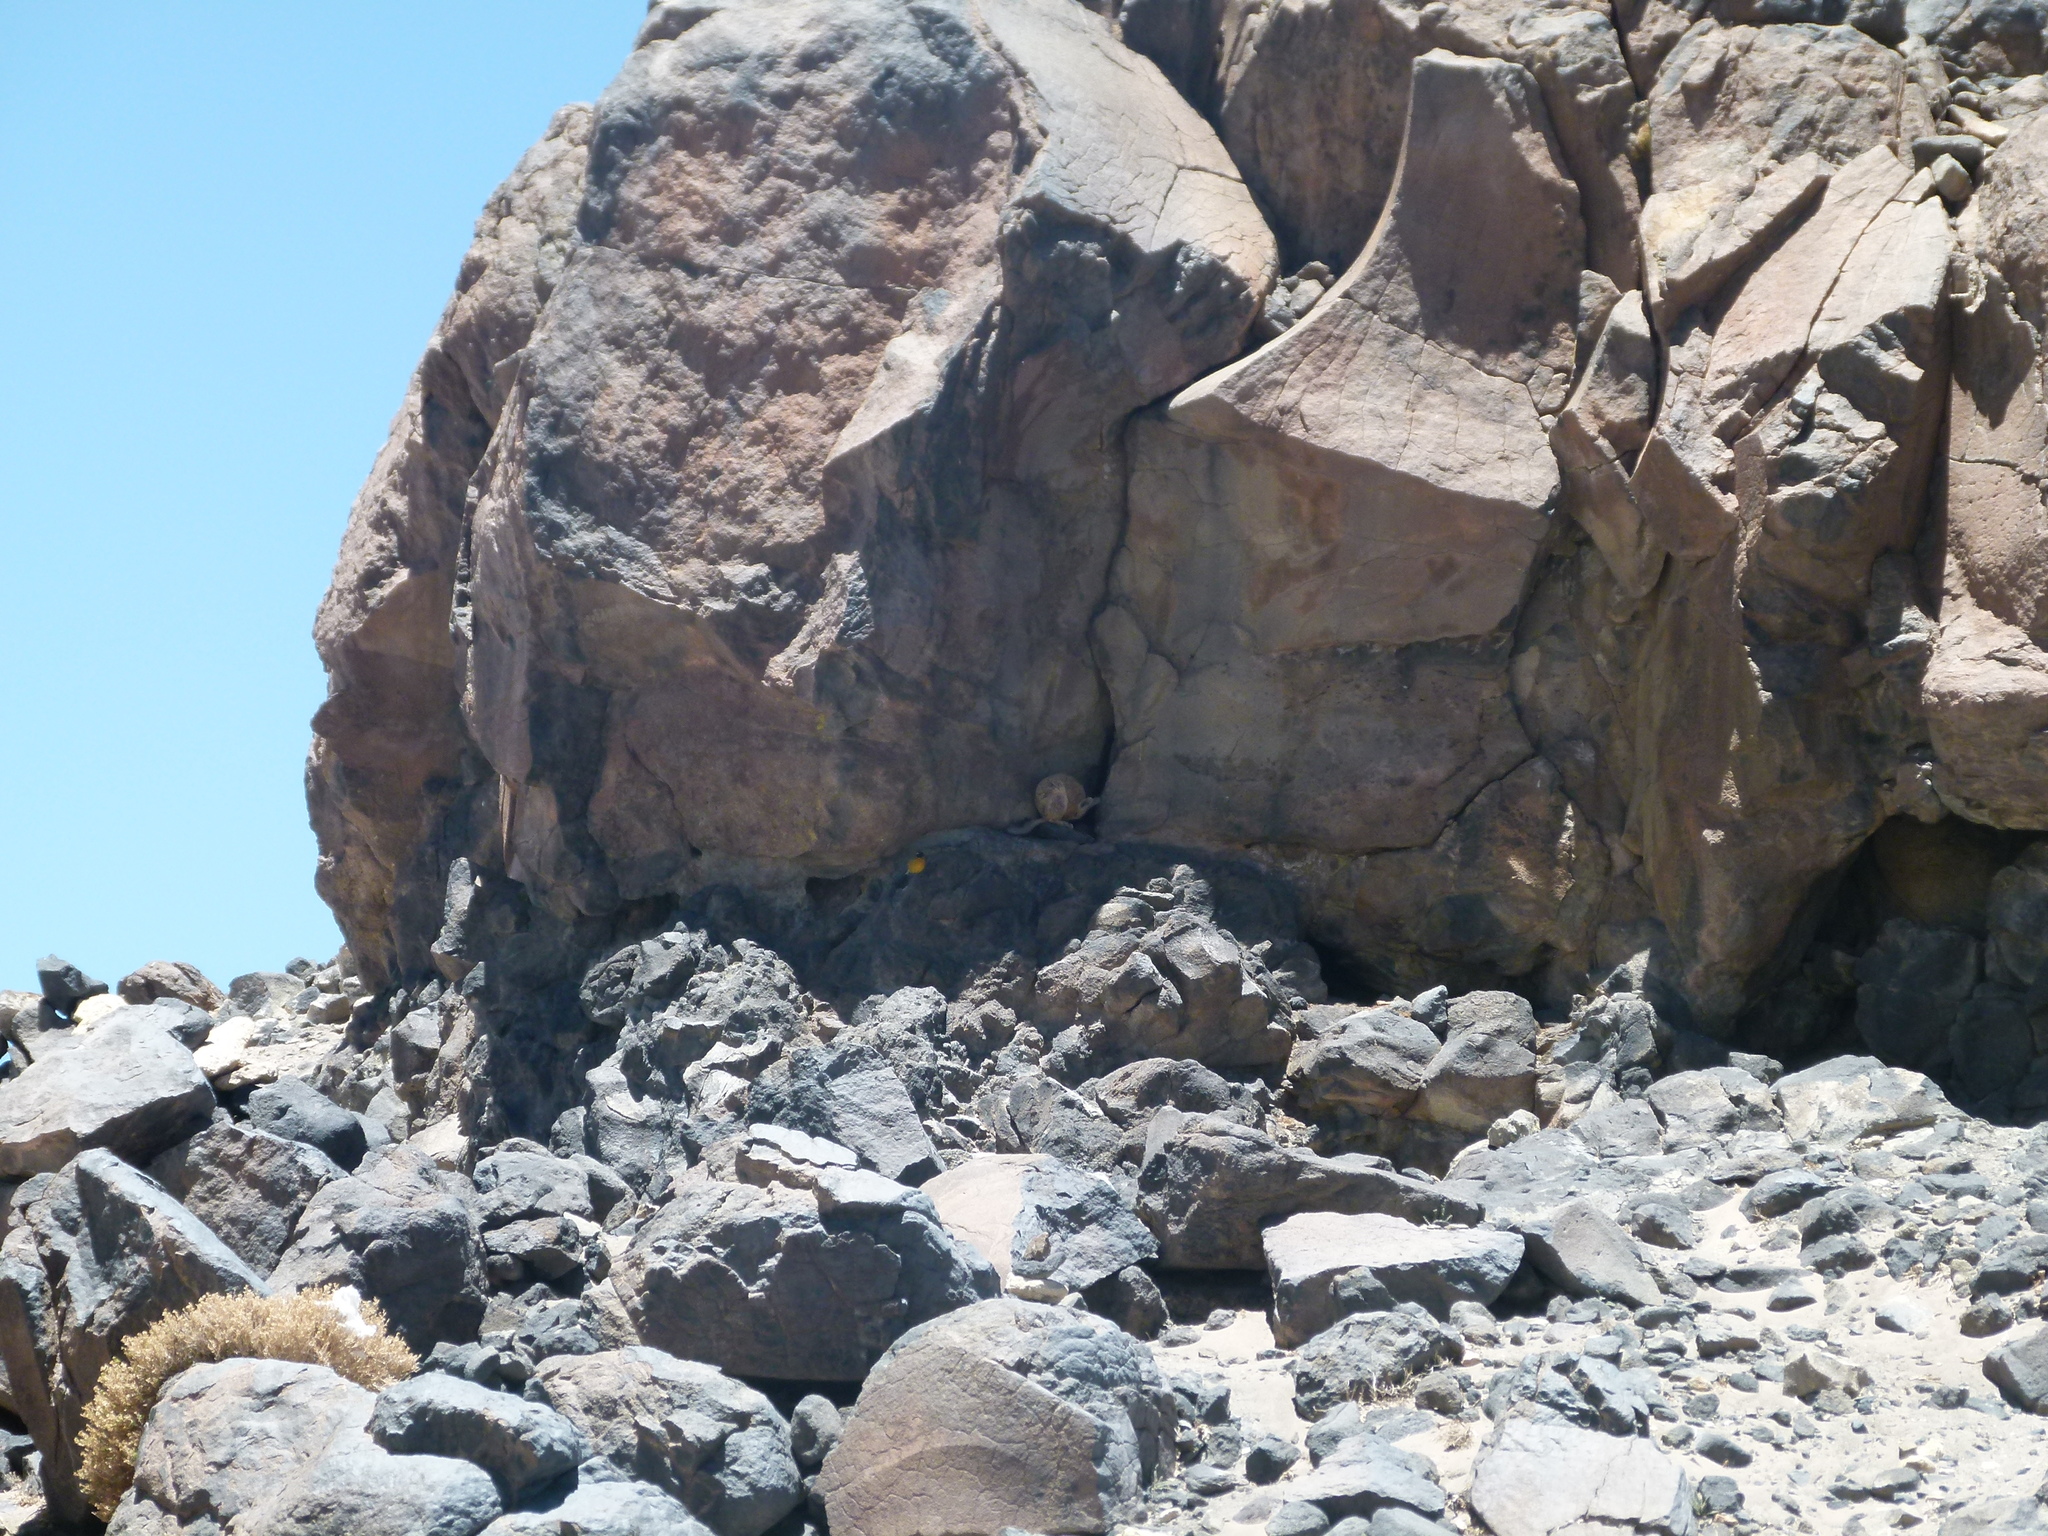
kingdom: Animalia
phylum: Chordata
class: Mammalia
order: Rodentia
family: Chinchillidae
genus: Lagidium
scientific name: Lagidium viscacia
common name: Southern viscacha
